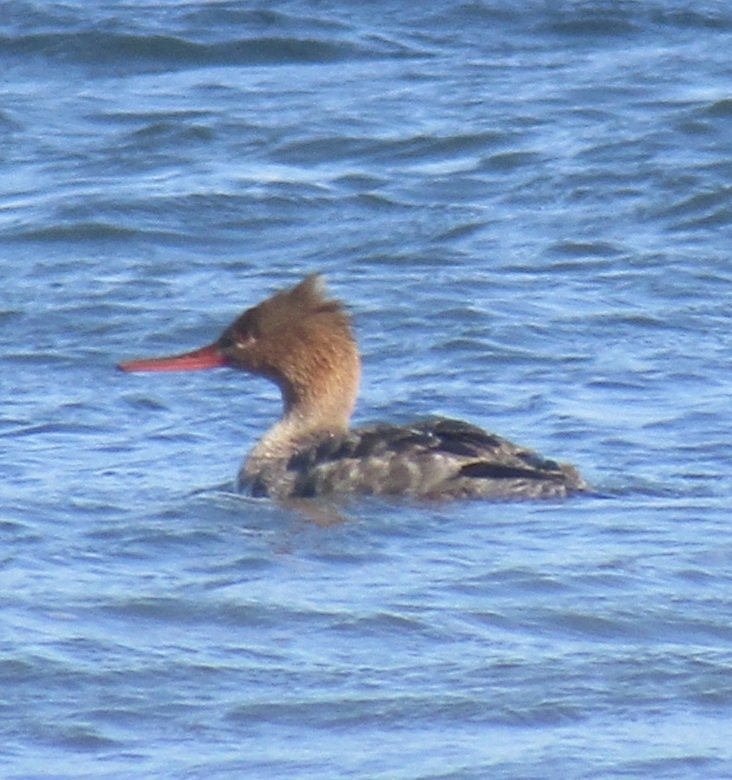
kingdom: Animalia
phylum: Chordata
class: Aves
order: Anseriformes
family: Anatidae
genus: Mergus
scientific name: Mergus serrator
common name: Red-breasted merganser
